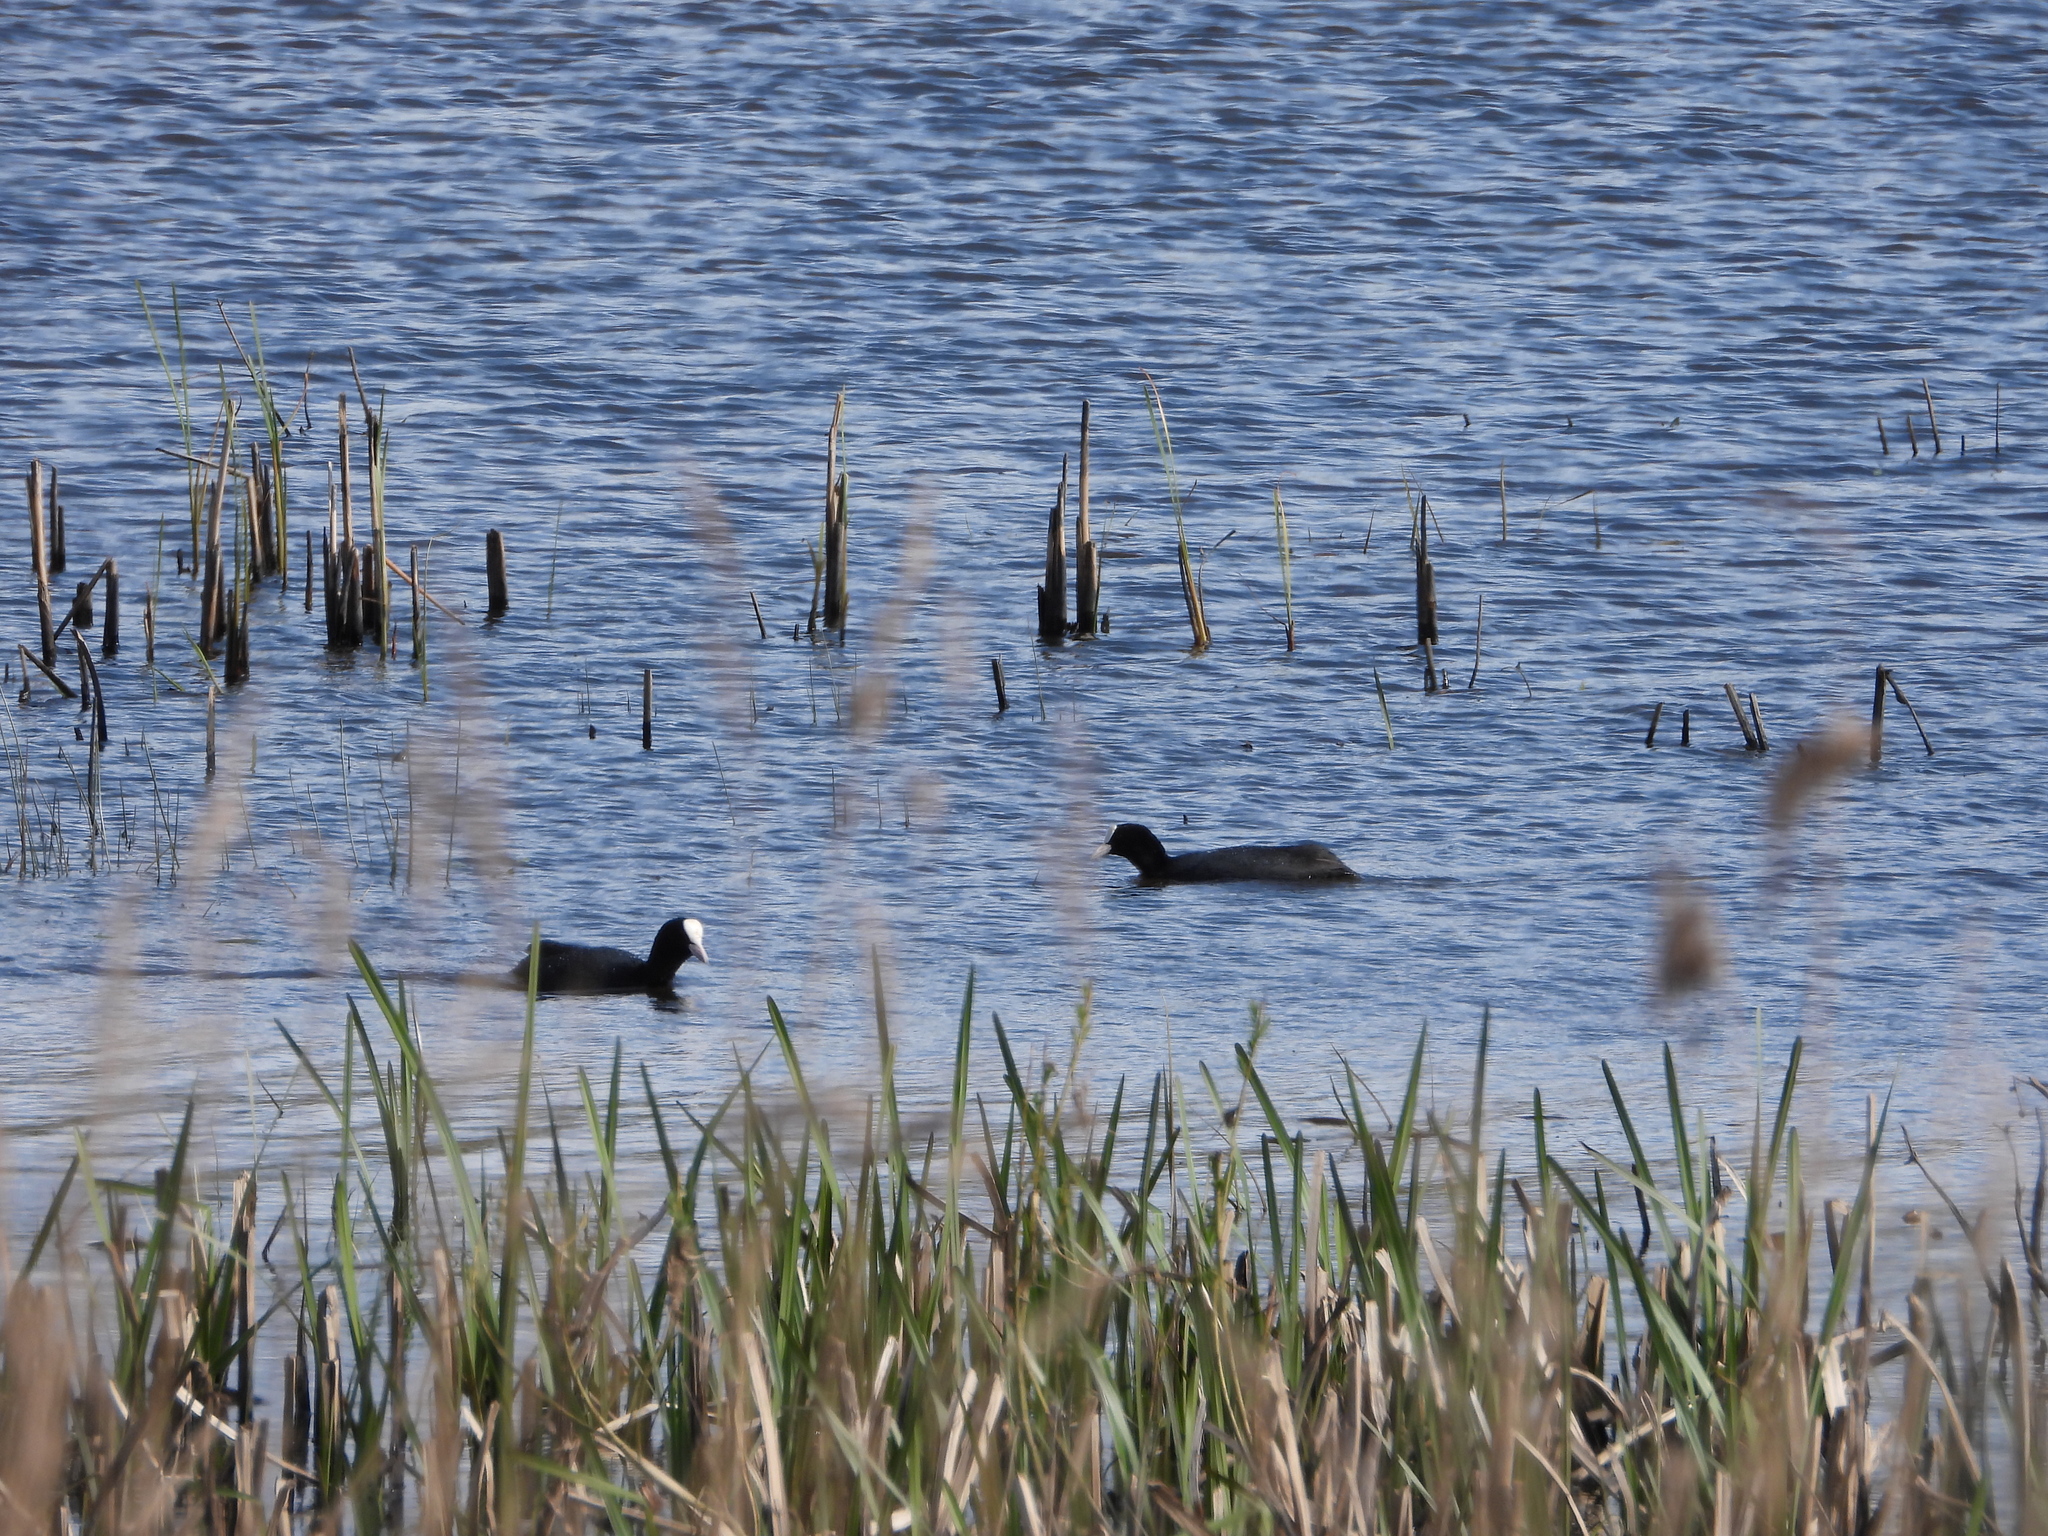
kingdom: Animalia
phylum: Chordata
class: Aves
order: Gruiformes
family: Rallidae
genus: Fulica
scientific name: Fulica atra
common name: Eurasian coot
